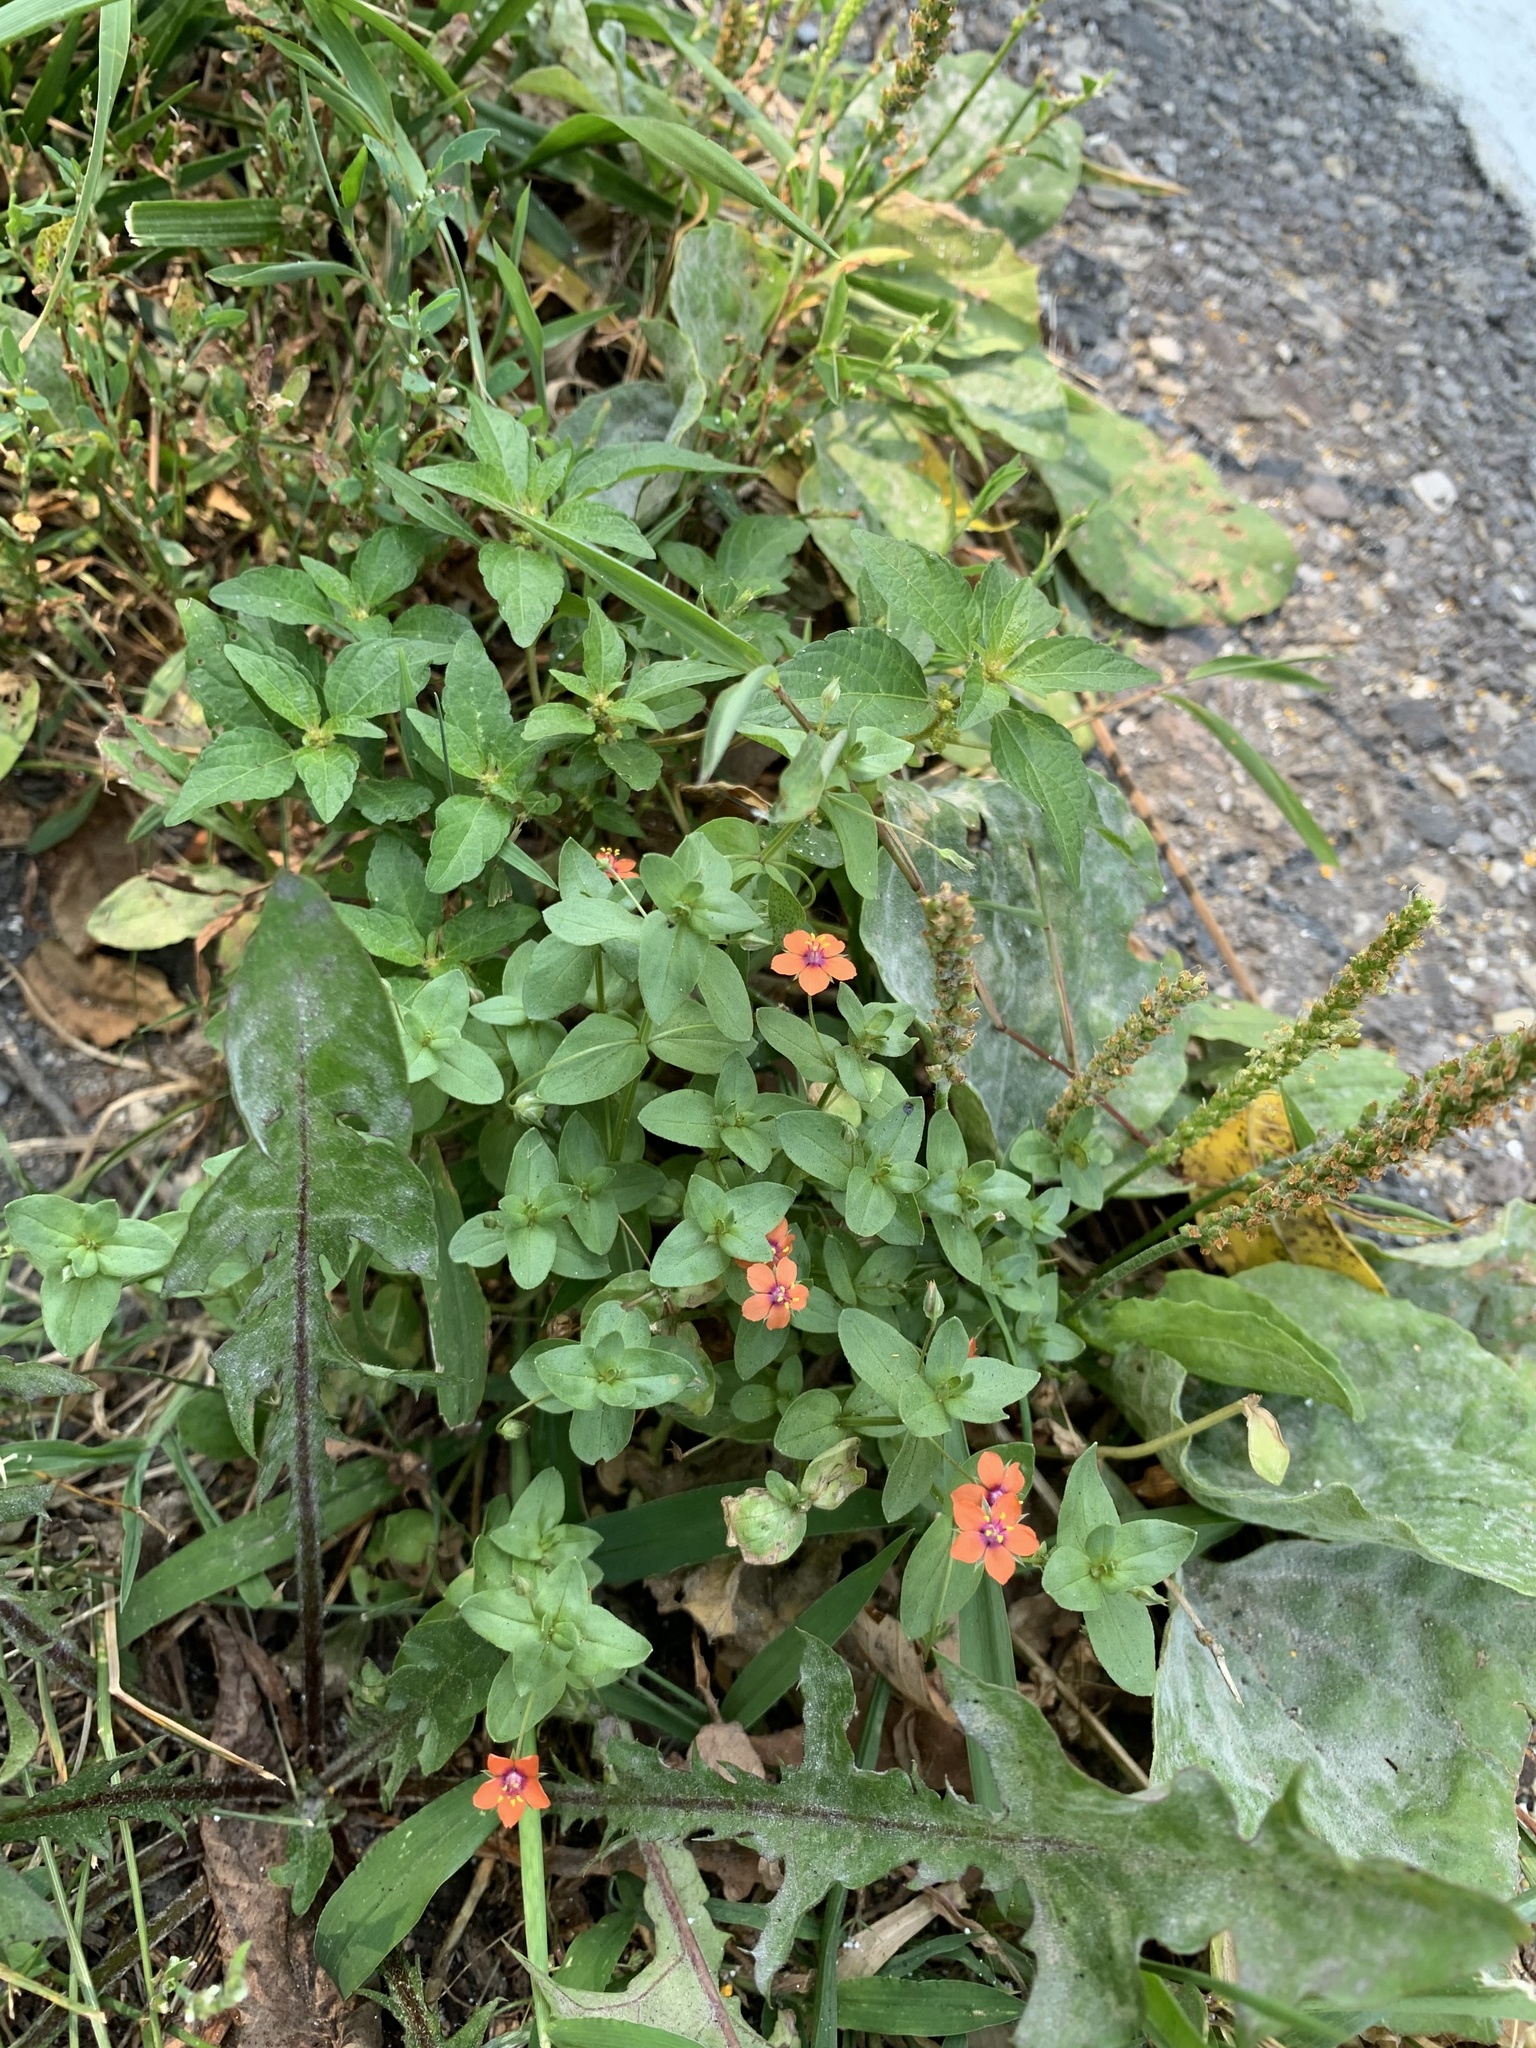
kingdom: Plantae
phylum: Tracheophyta
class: Magnoliopsida
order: Ericales
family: Primulaceae
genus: Lysimachia
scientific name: Lysimachia arvensis
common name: Scarlet pimpernel
